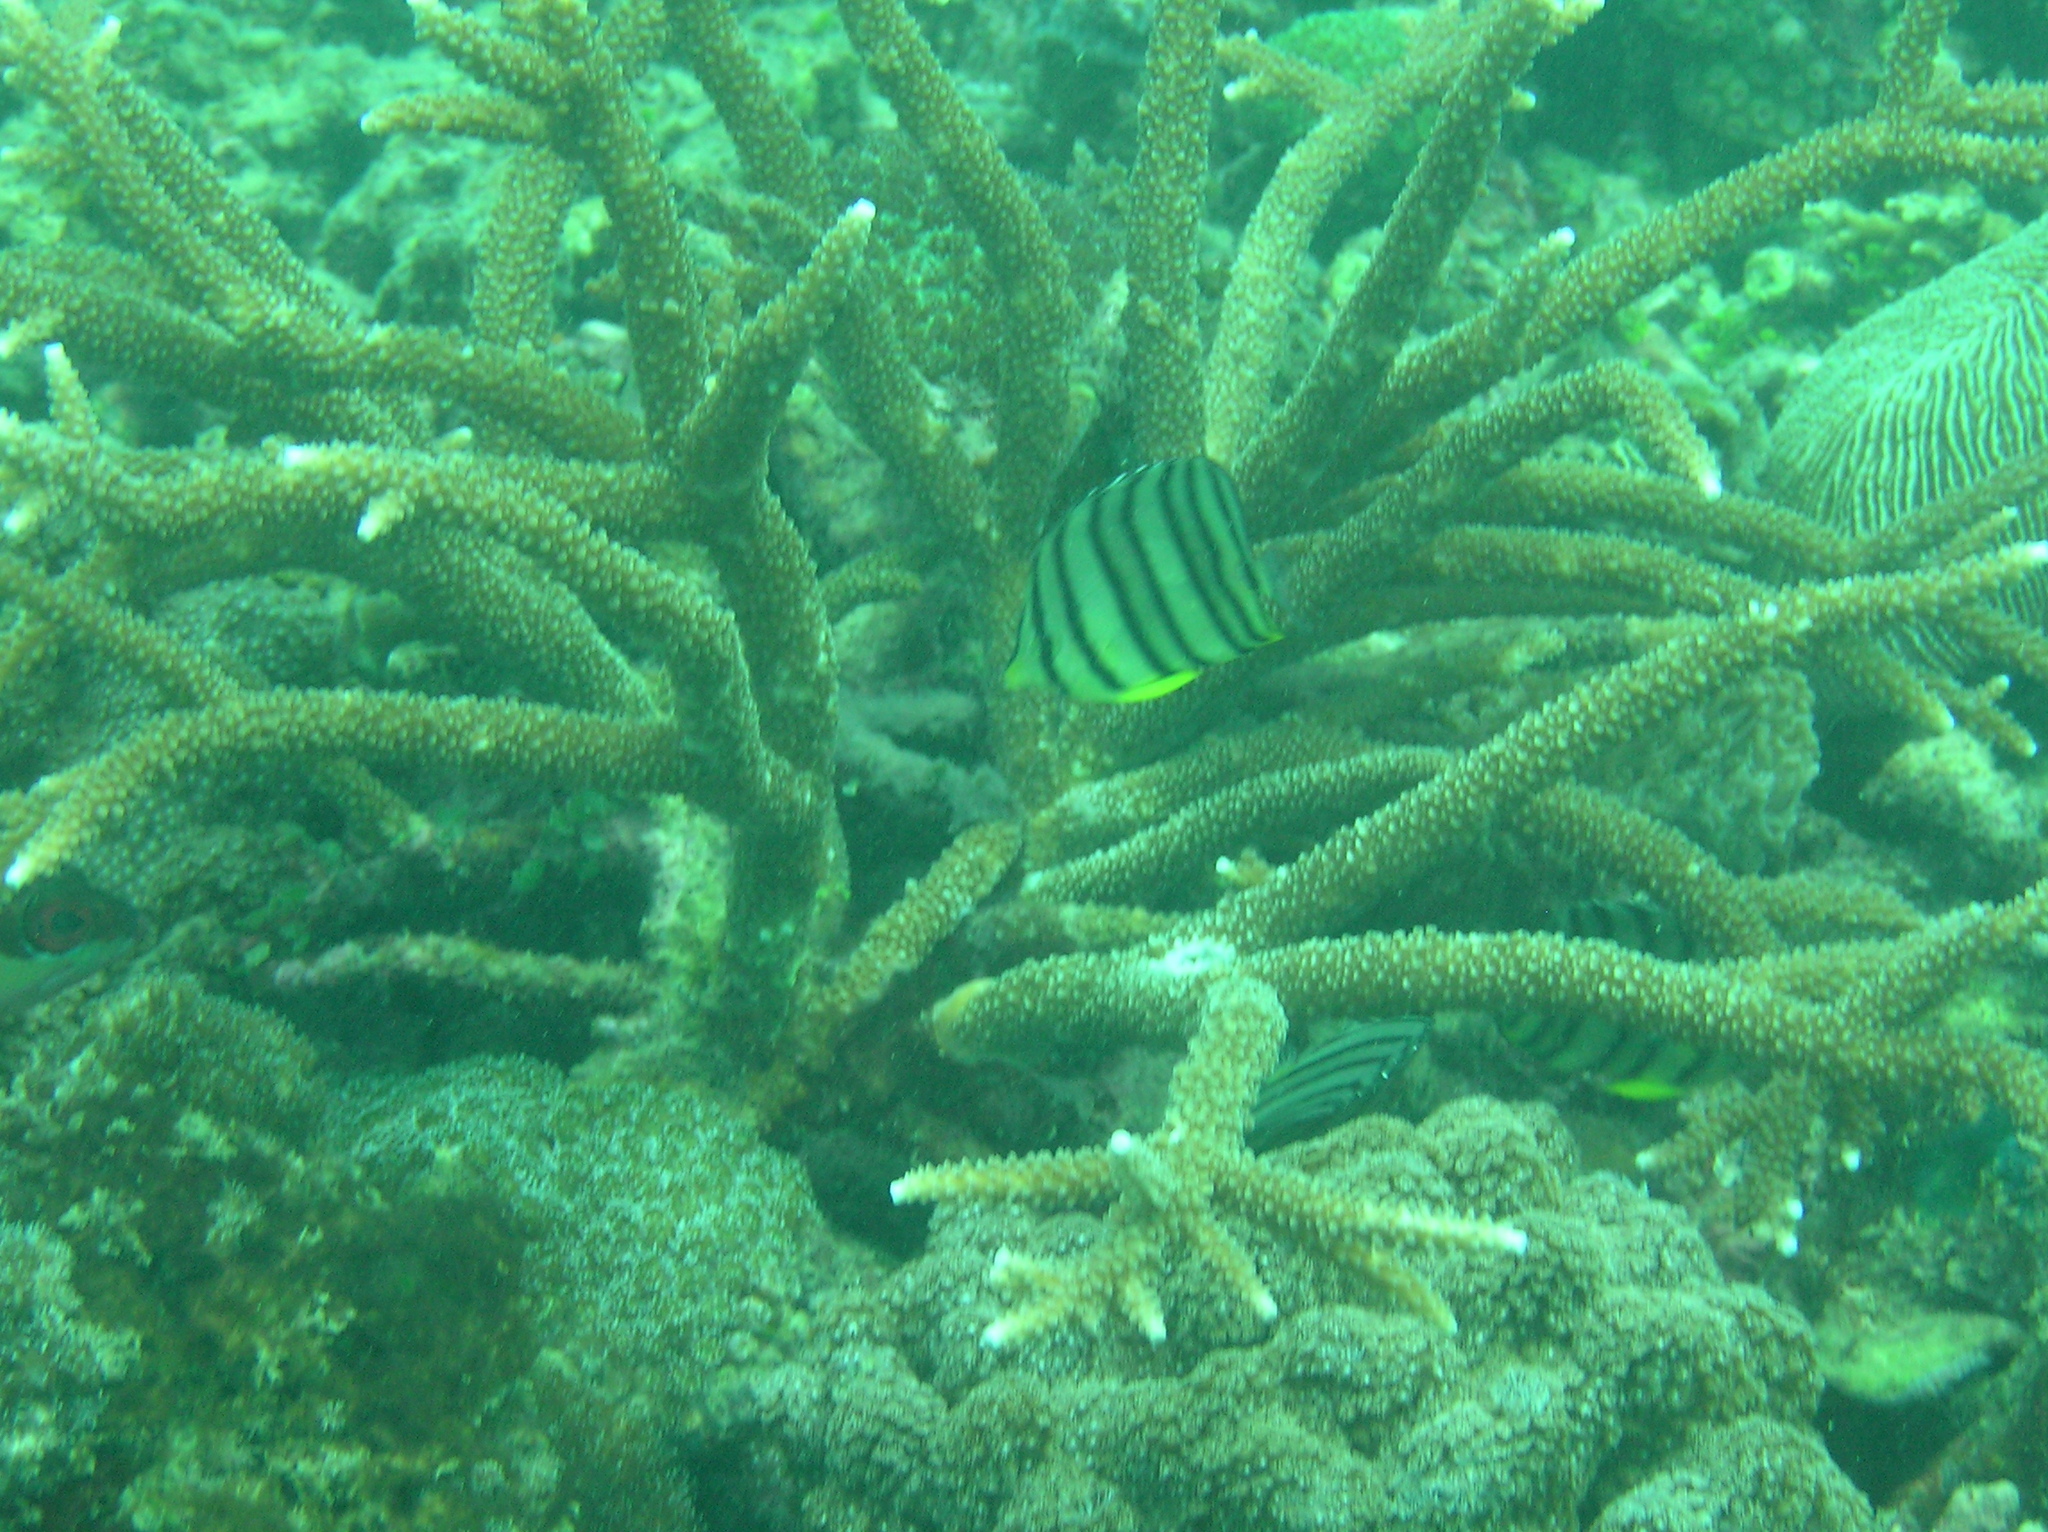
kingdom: Animalia
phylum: Chordata
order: Perciformes
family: Chaetodontidae
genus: Chaetodon
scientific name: Chaetodon octofasciatus
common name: Eightband butterflyfish
